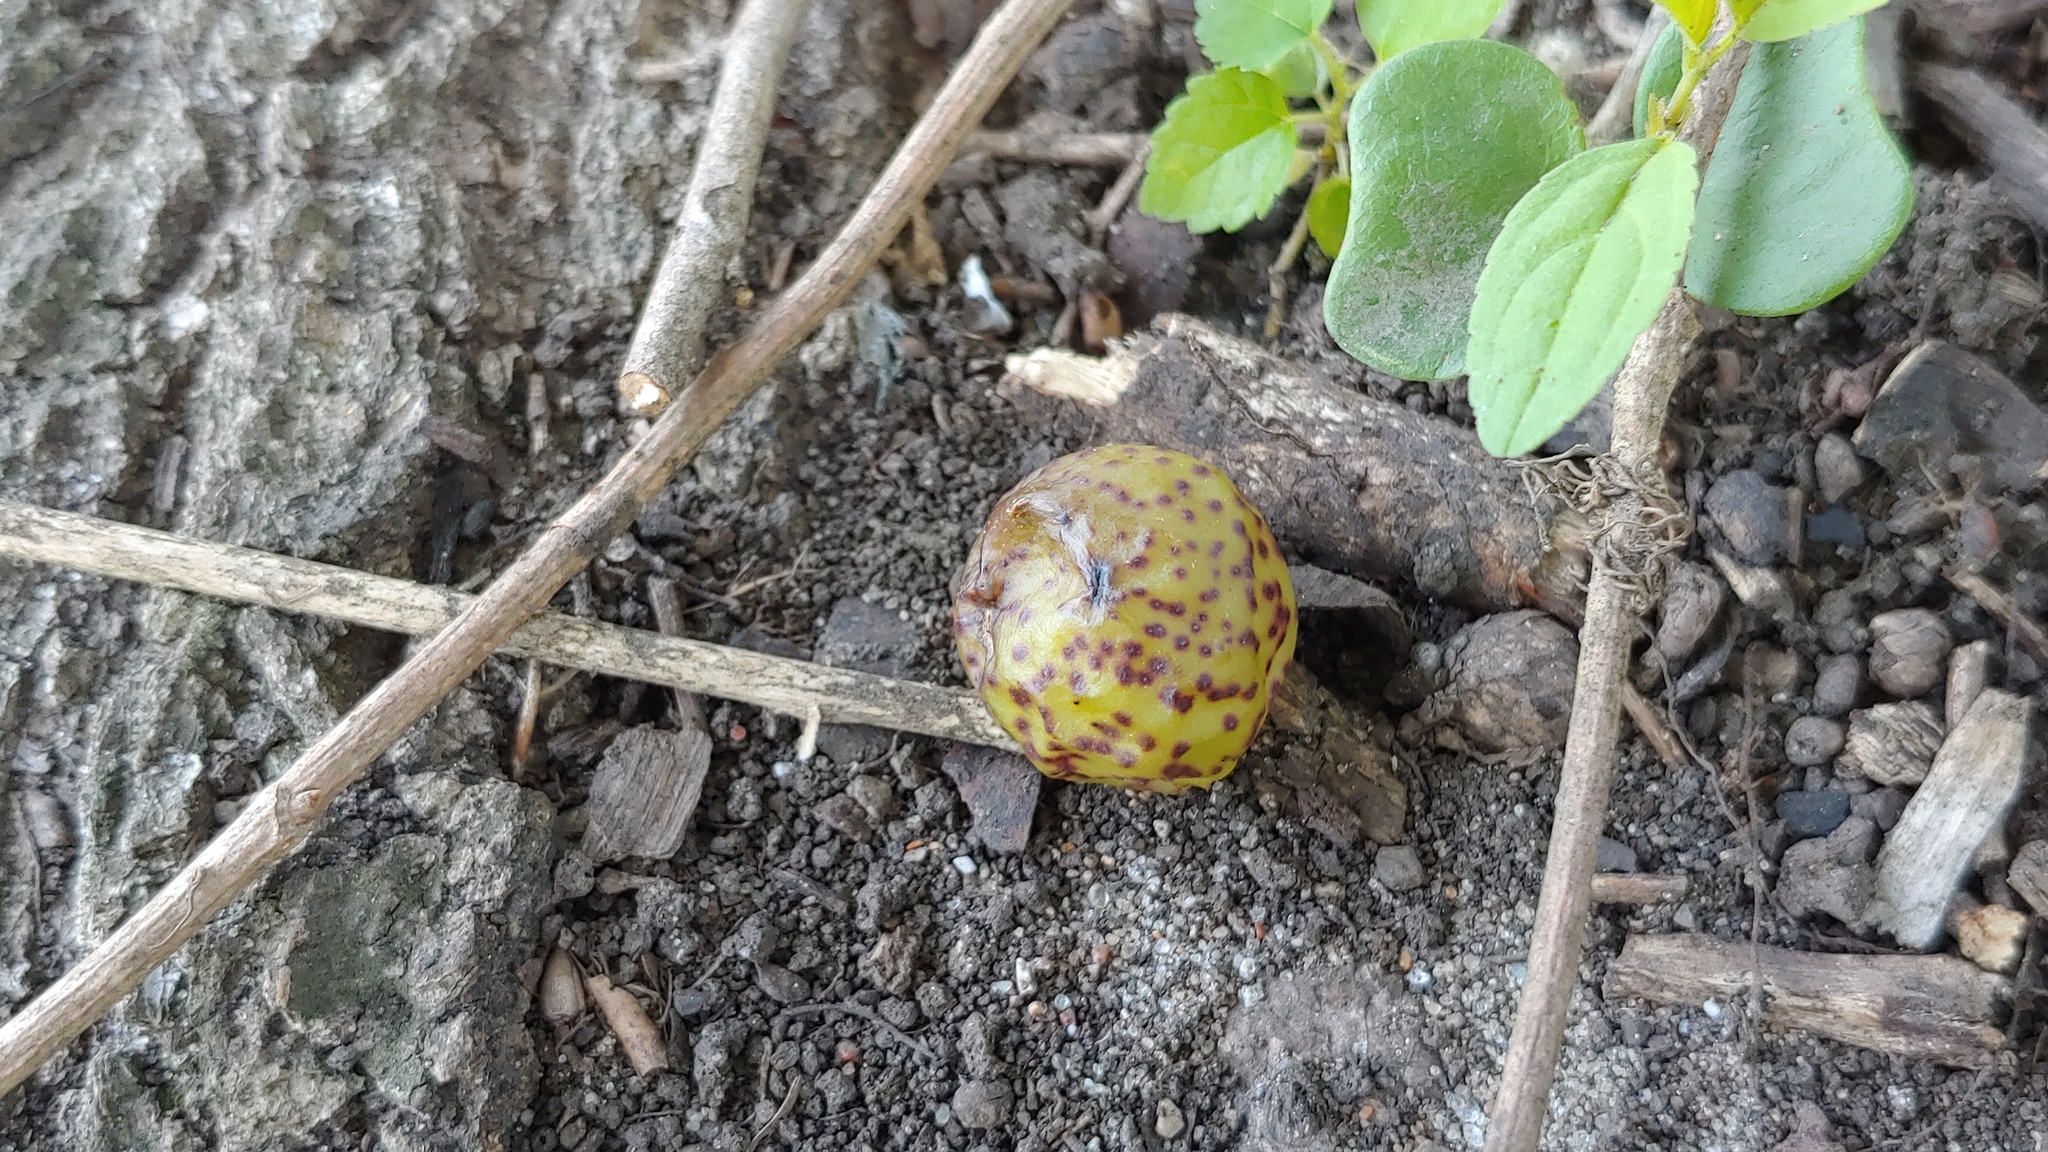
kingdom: Animalia
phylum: Arthropoda
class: Insecta
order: Hymenoptera
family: Cynipidae
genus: Amphibolips
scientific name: Amphibolips
